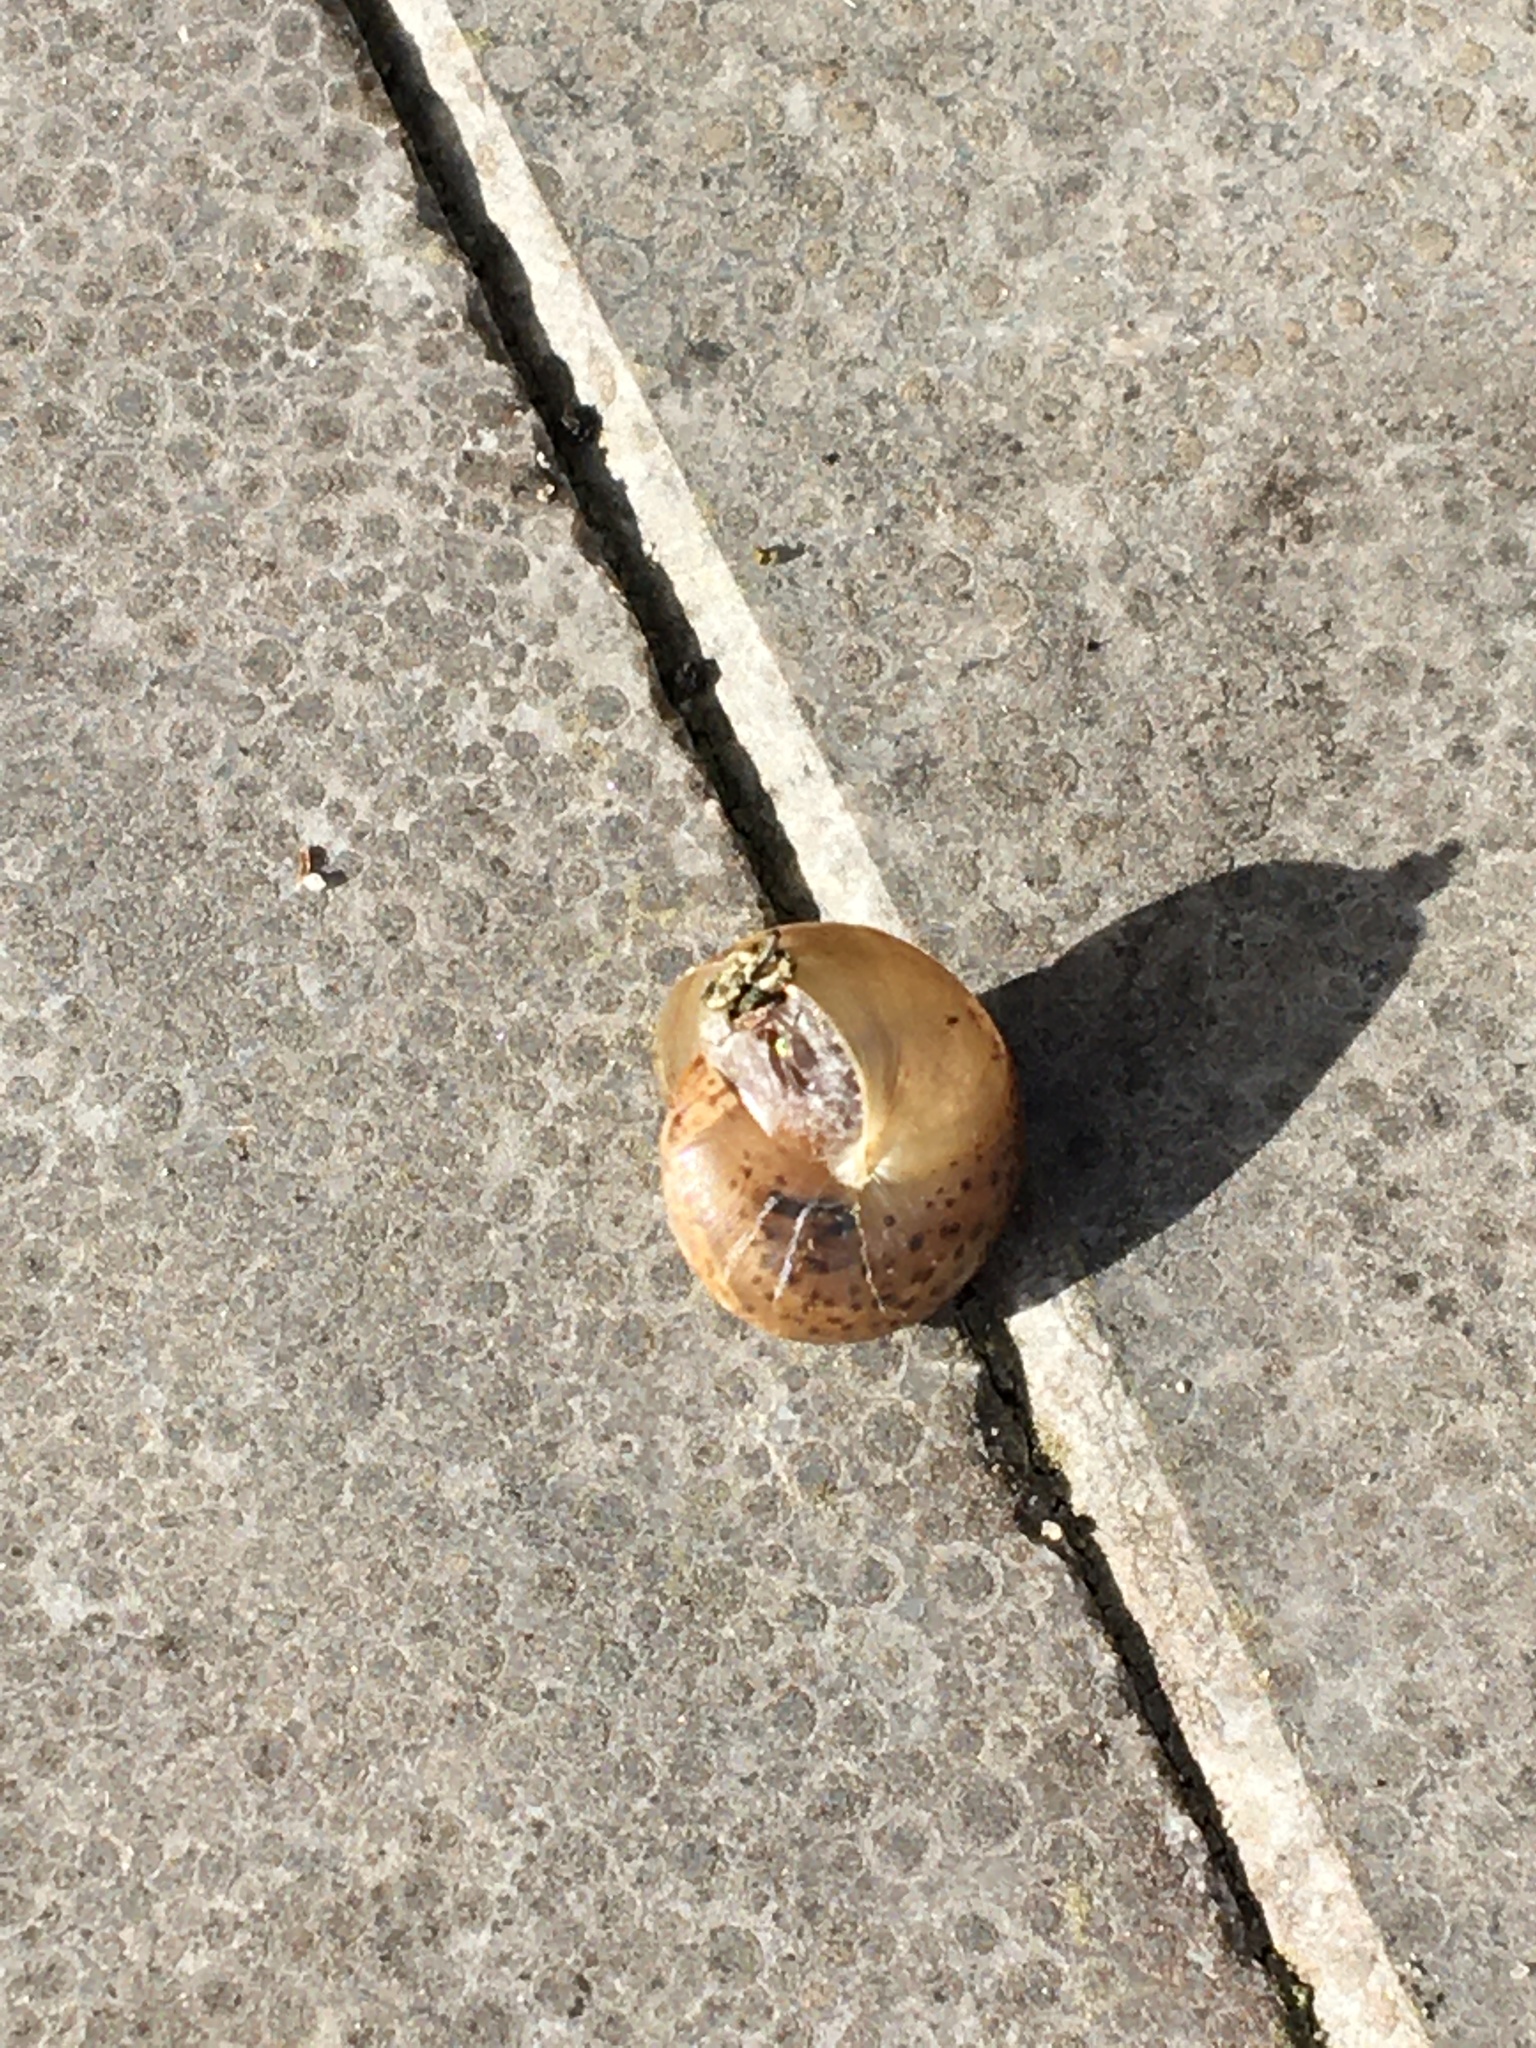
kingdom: Animalia
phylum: Mollusca
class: Gastropoda
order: Stylommatophora
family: Hygromiidae
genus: Monachoides
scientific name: Monachoides incarnatus
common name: Incarnate snail
